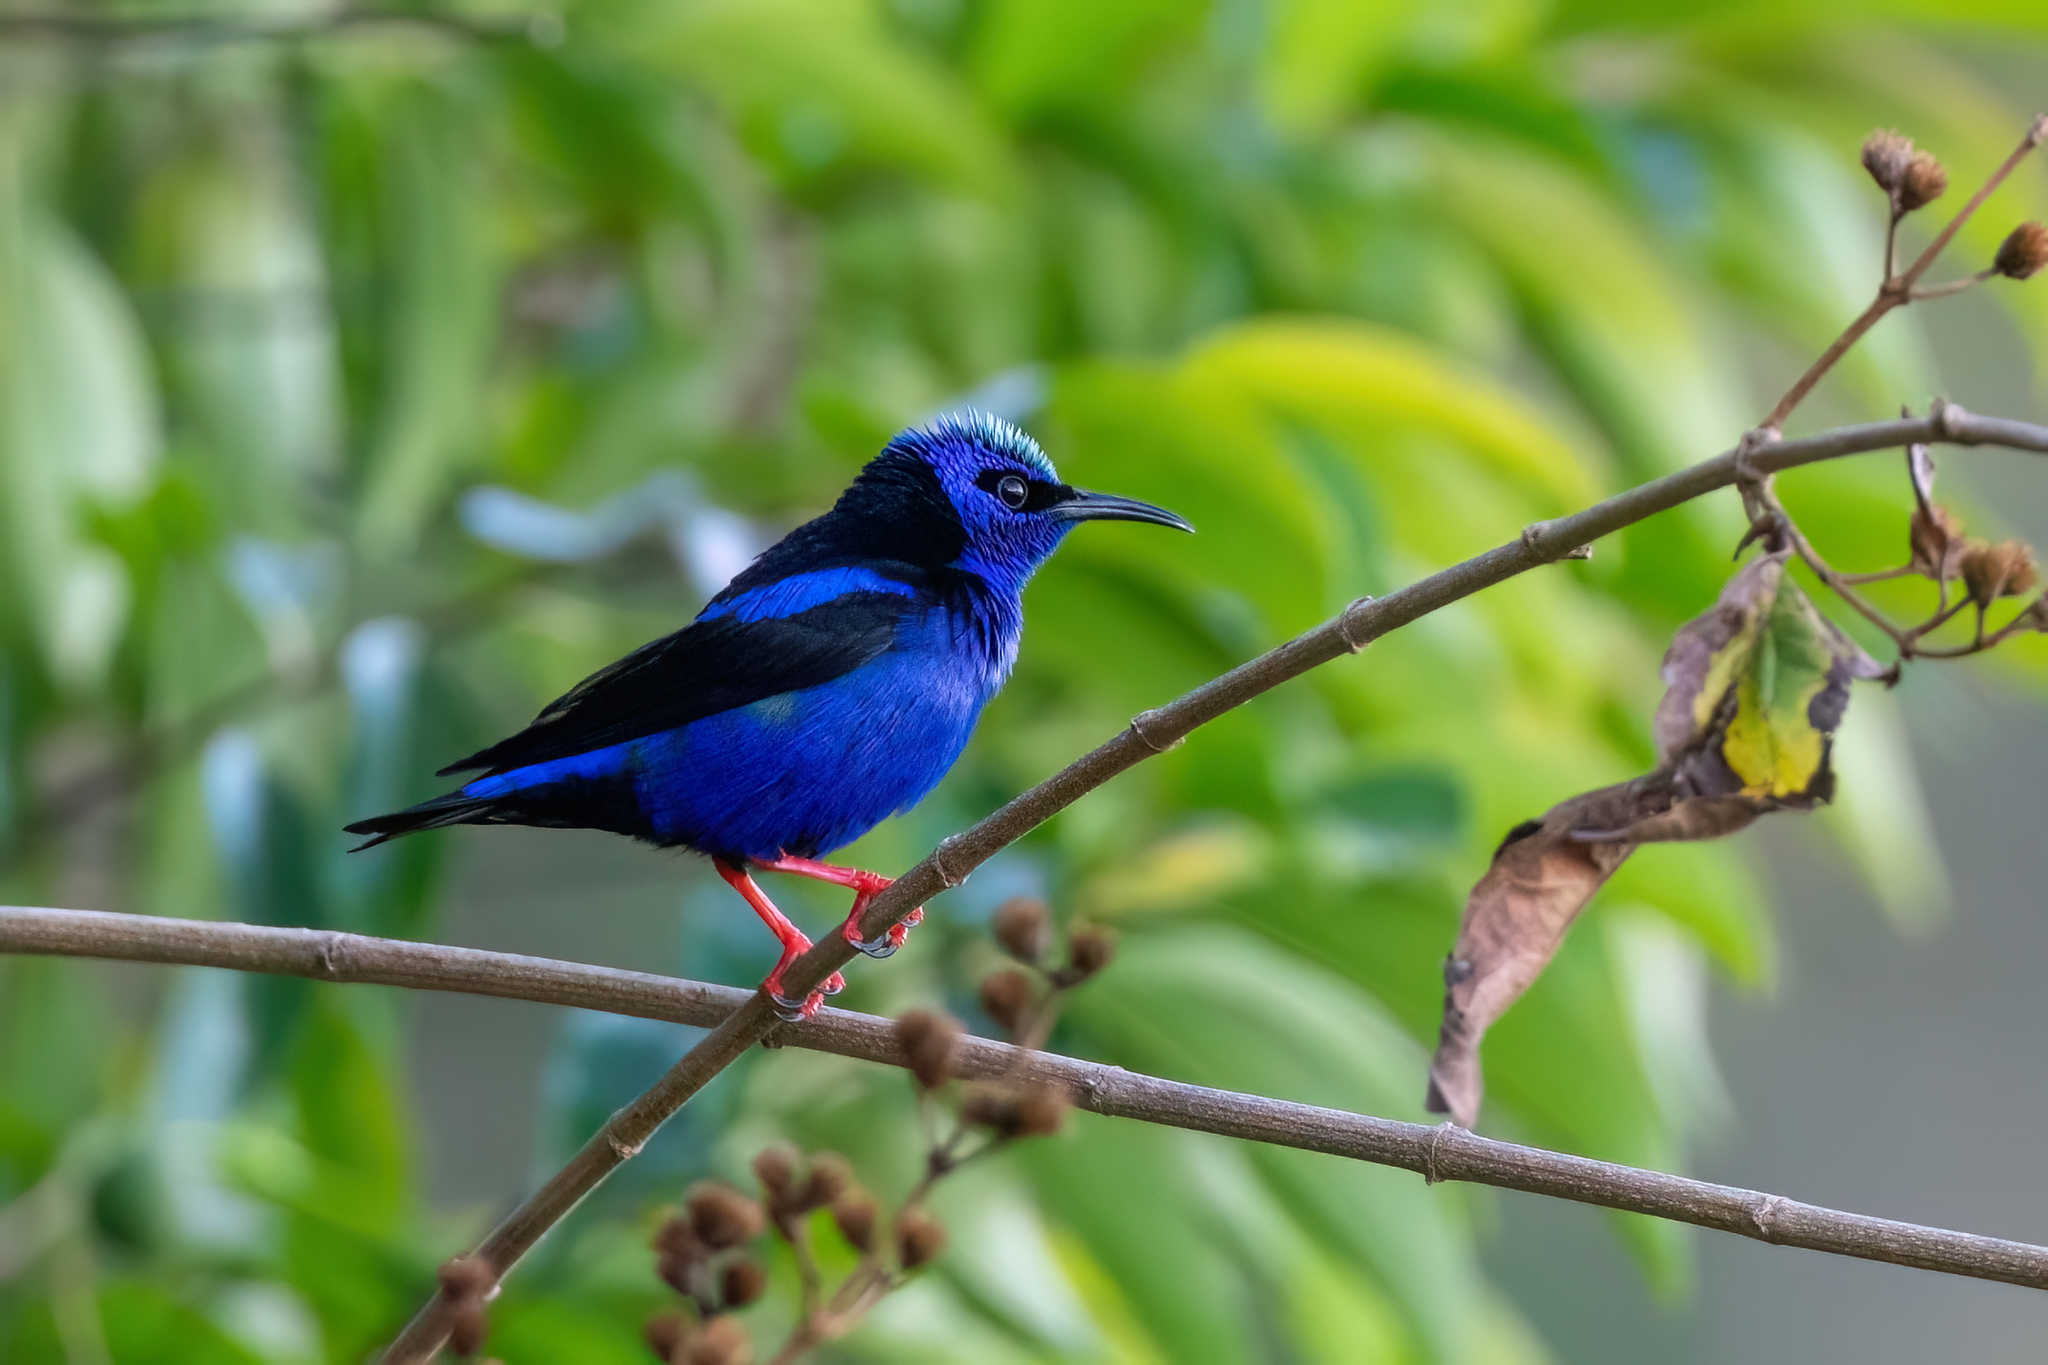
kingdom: Animalia
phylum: Chordata
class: Aves
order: Passeriformes
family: Thraupidae
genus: Cyanerpes
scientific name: Cyanerpes cyaneus
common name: Red-legged honeycreeper
